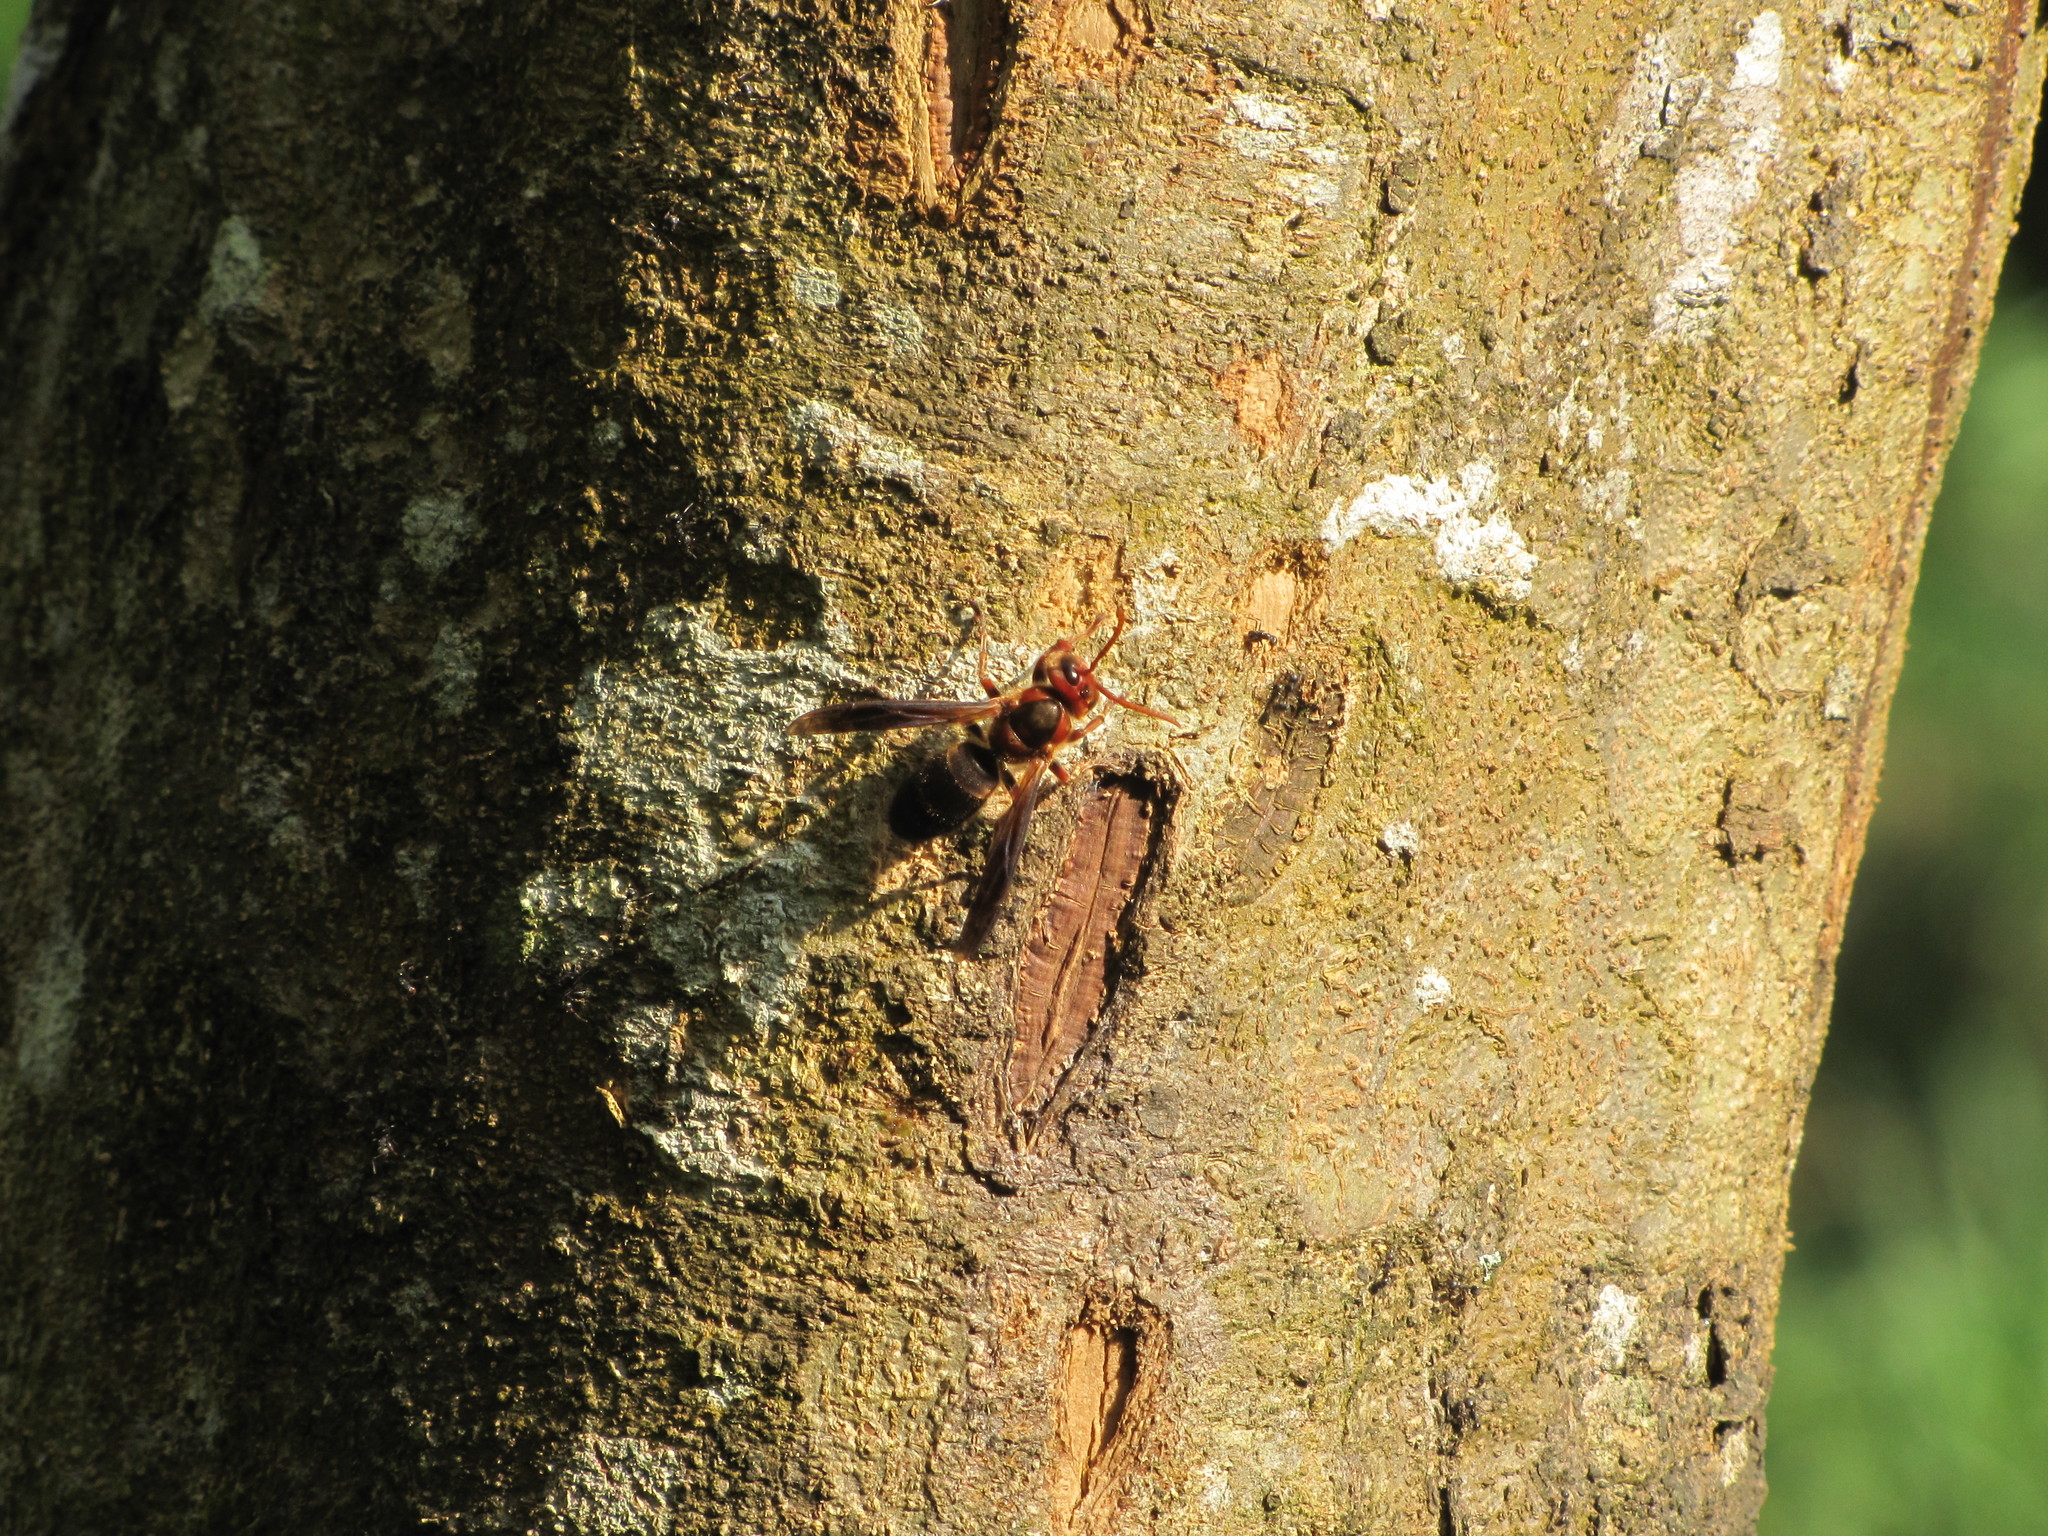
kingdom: Animalia
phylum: Arthropoda
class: Insecta
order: Hymenoptera
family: Vespidae
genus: Vespa
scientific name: Vespa basalis
